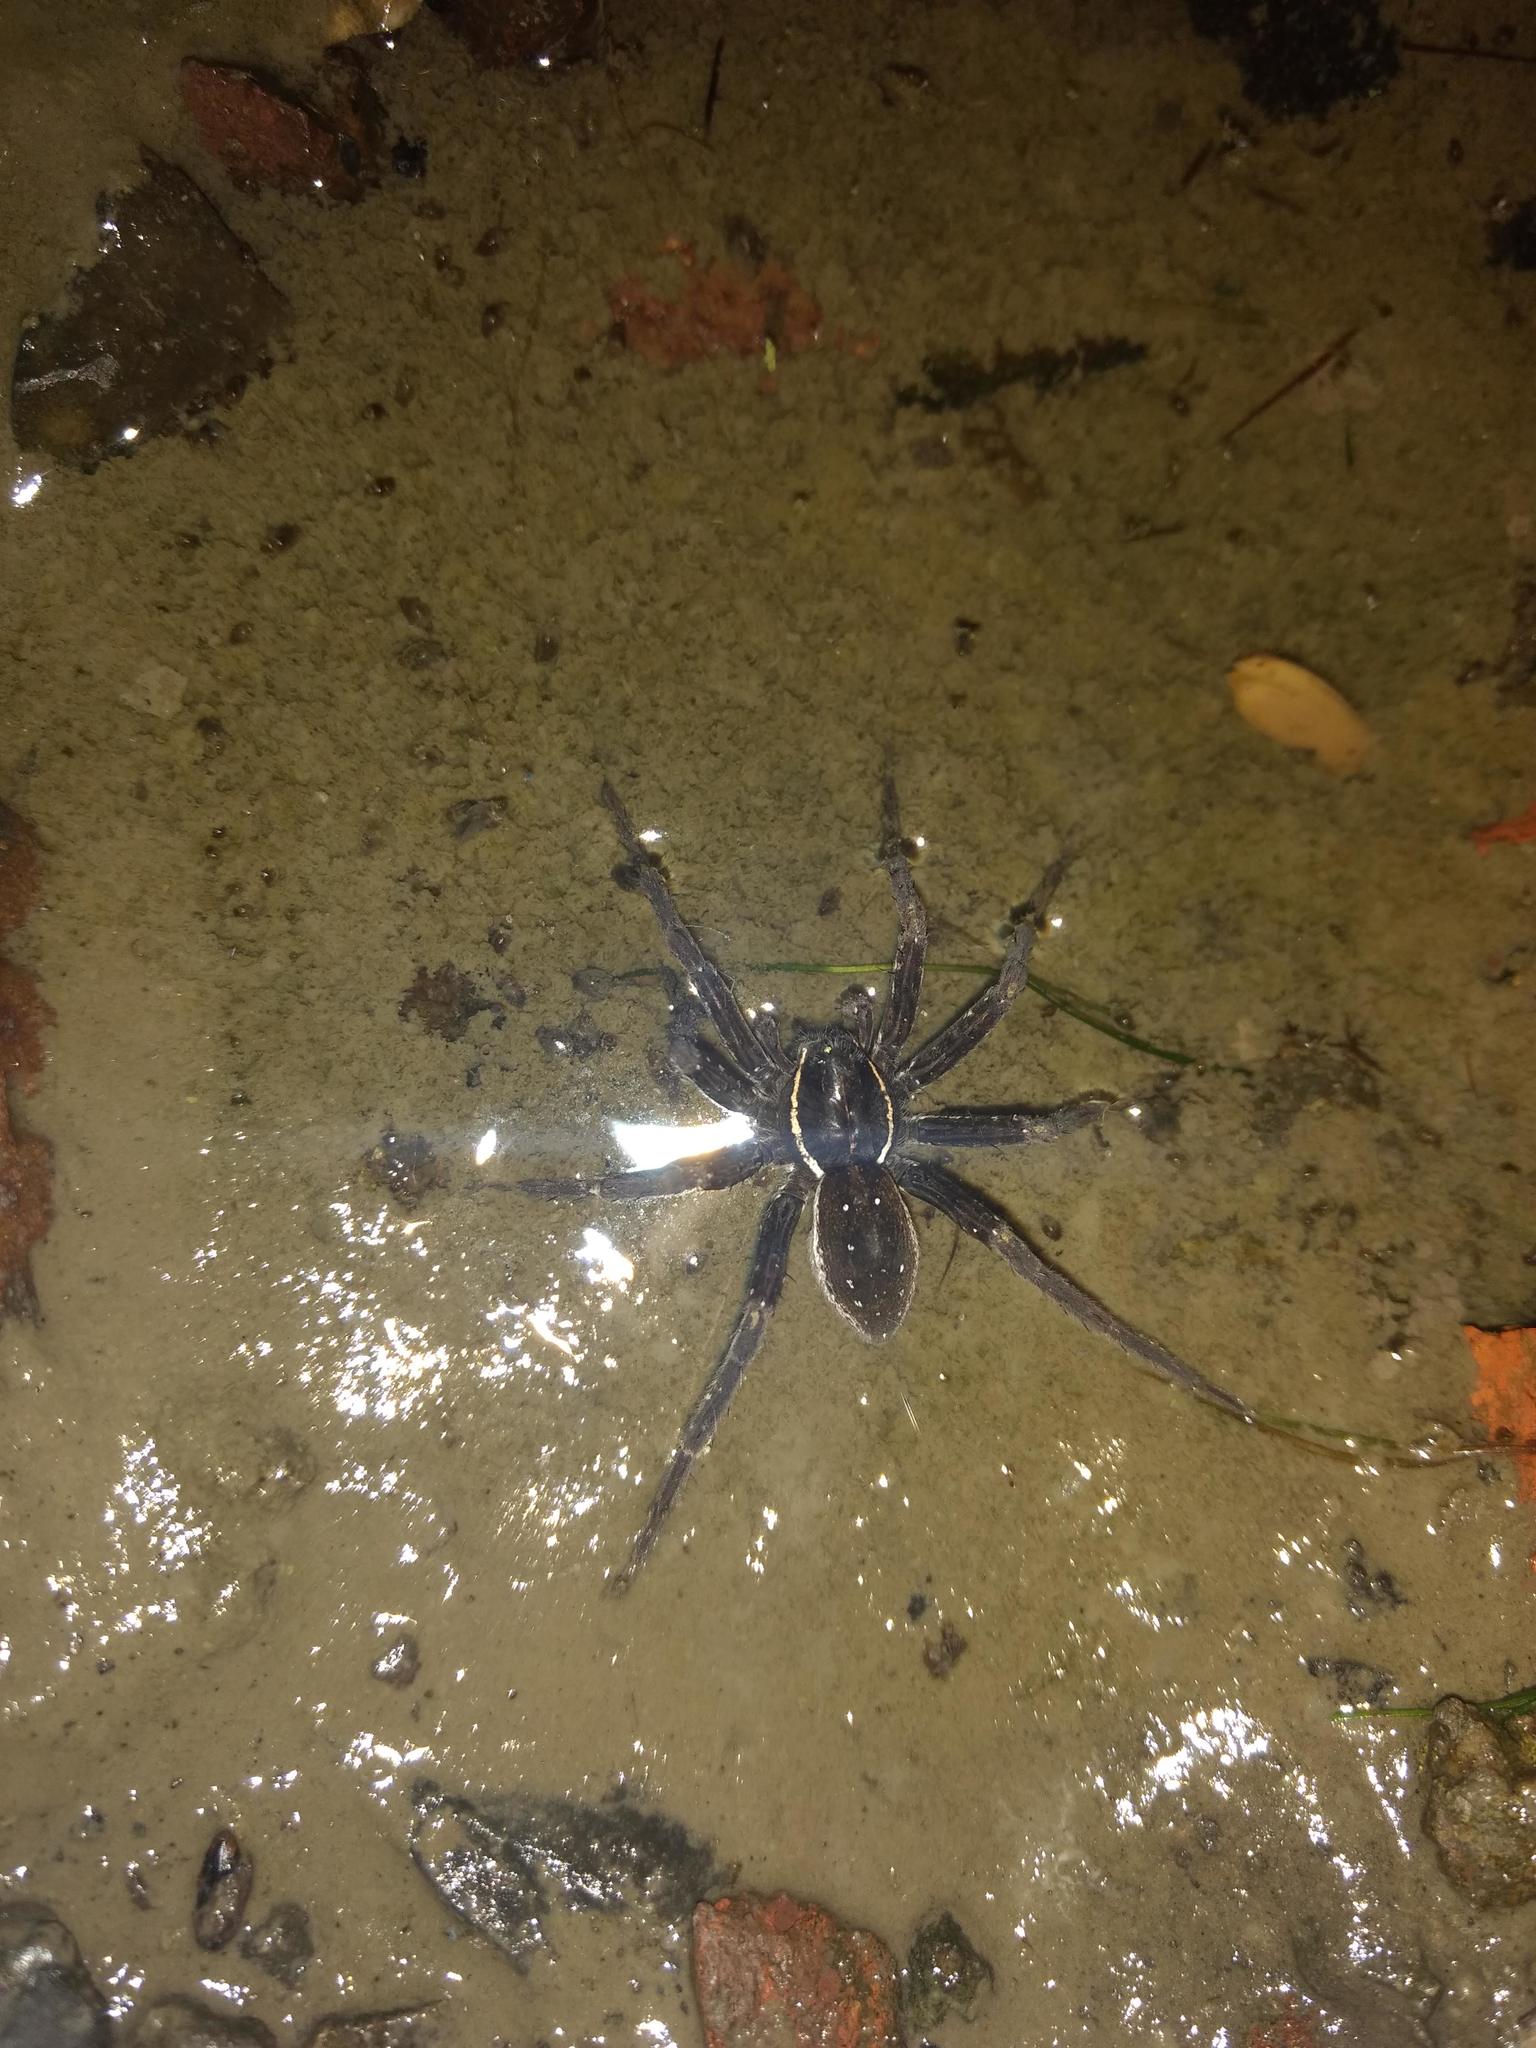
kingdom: Animalia
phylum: Arthropoda
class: Arachnida
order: Araneae
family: Pisauridae
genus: Dolomedes
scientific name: Dolomedes triton
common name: Six-spotted fishing spider
